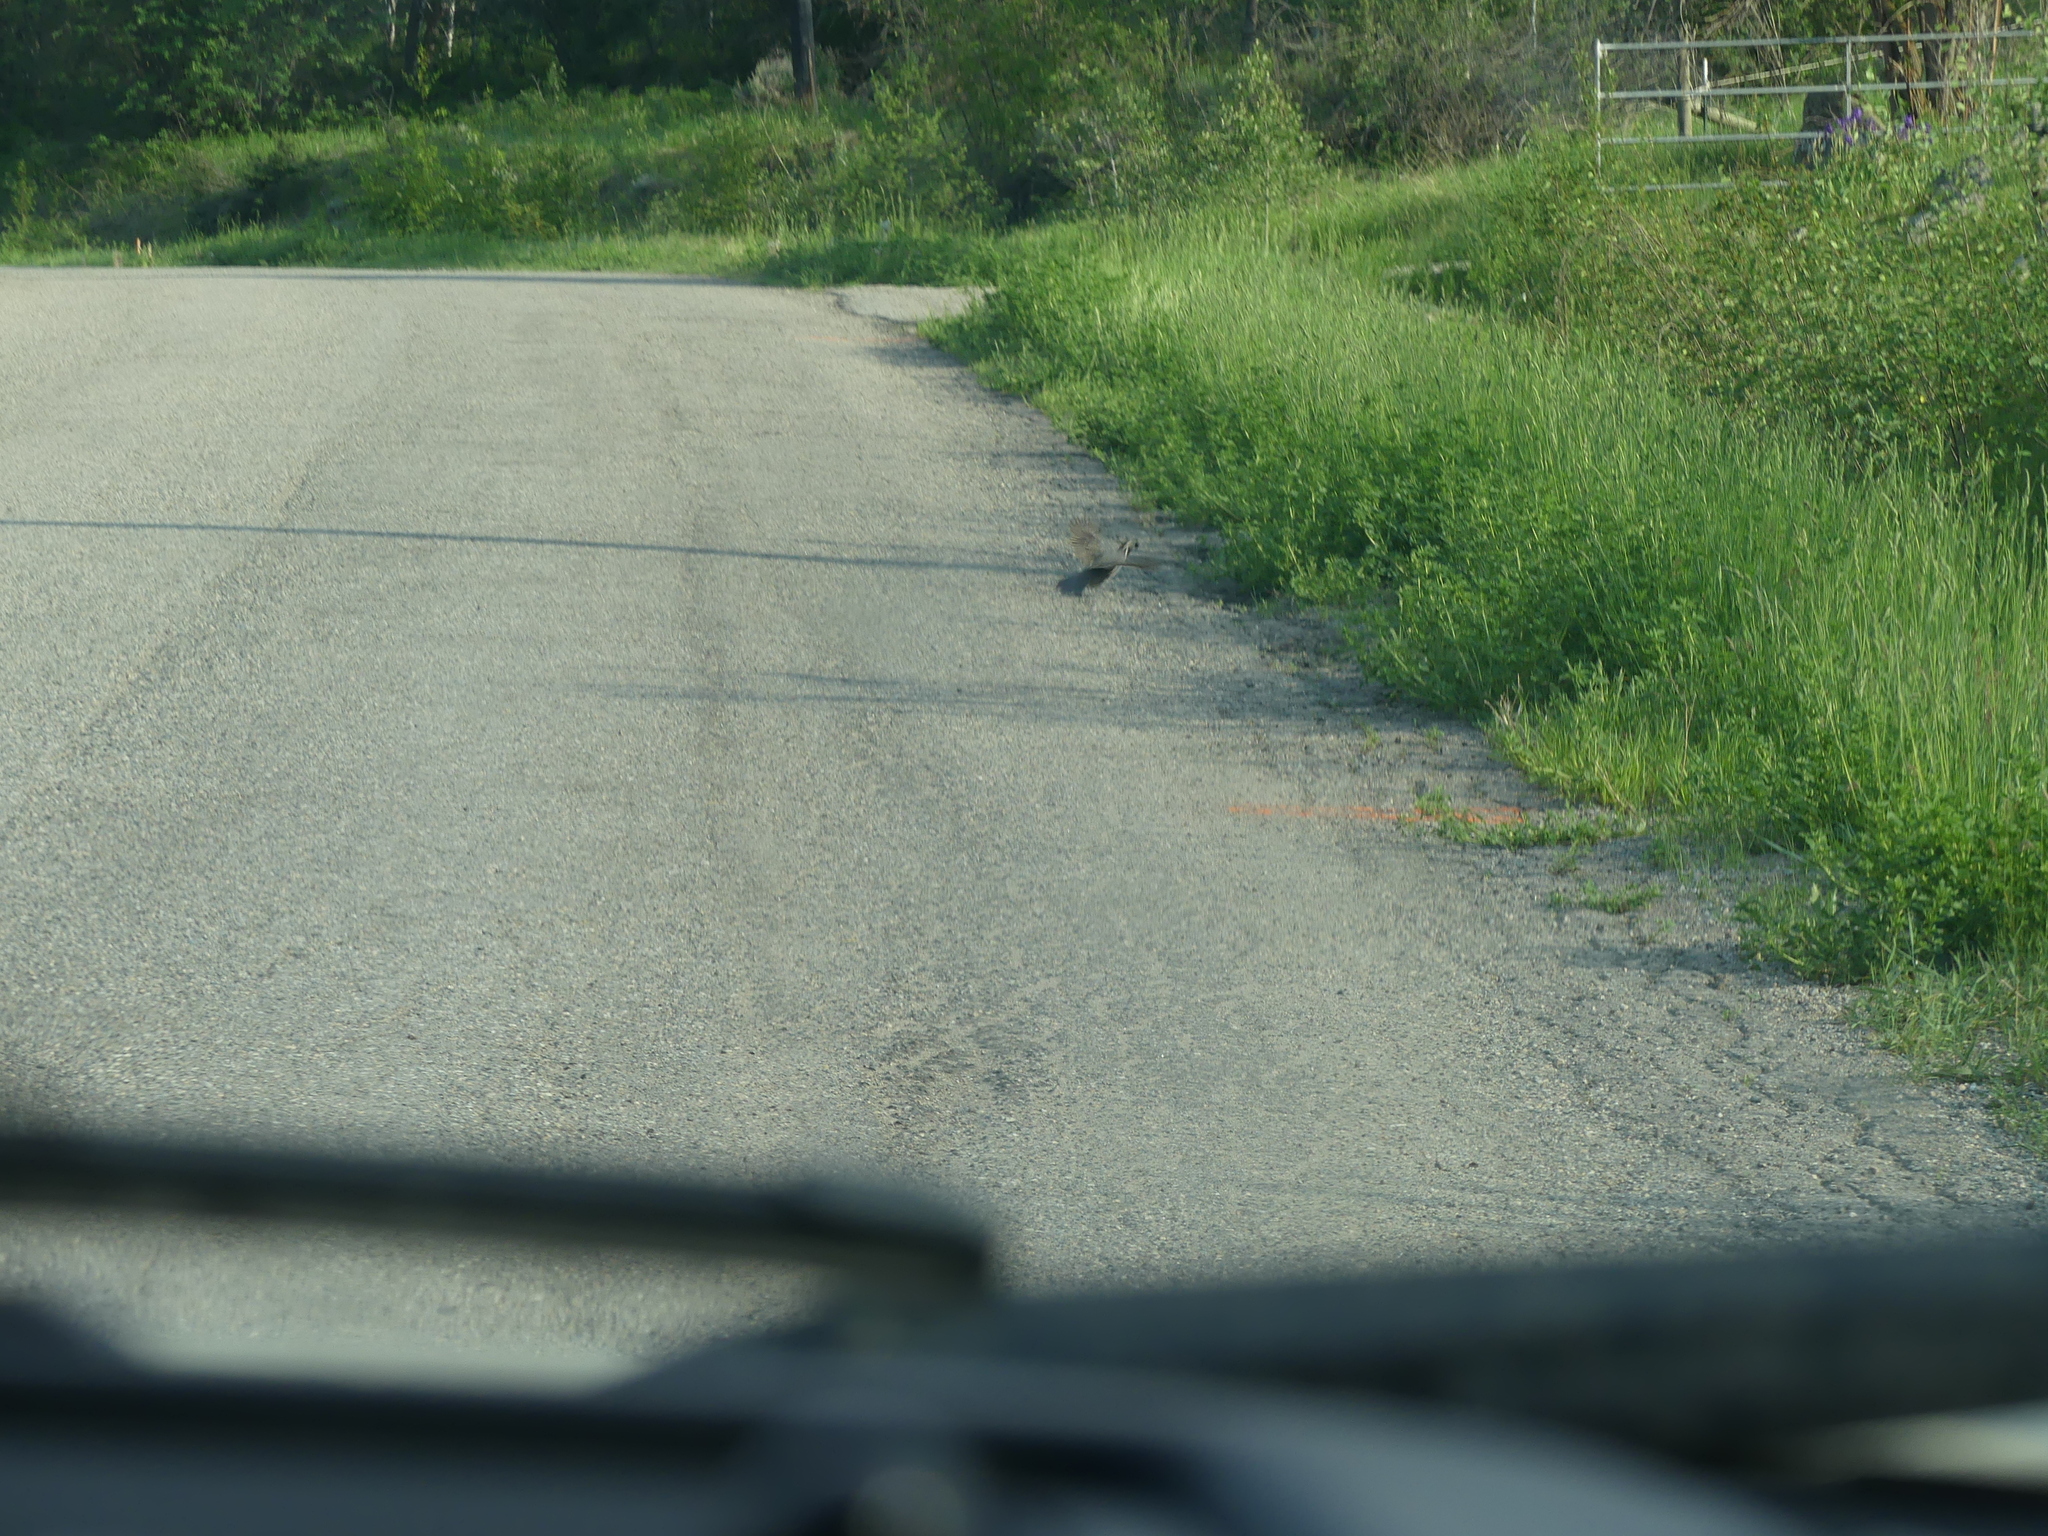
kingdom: Animalia
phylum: Chordata
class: Aves
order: Galliformes
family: Odontophoridae
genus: Callipepla
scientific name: Callipepla californica
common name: California quail
